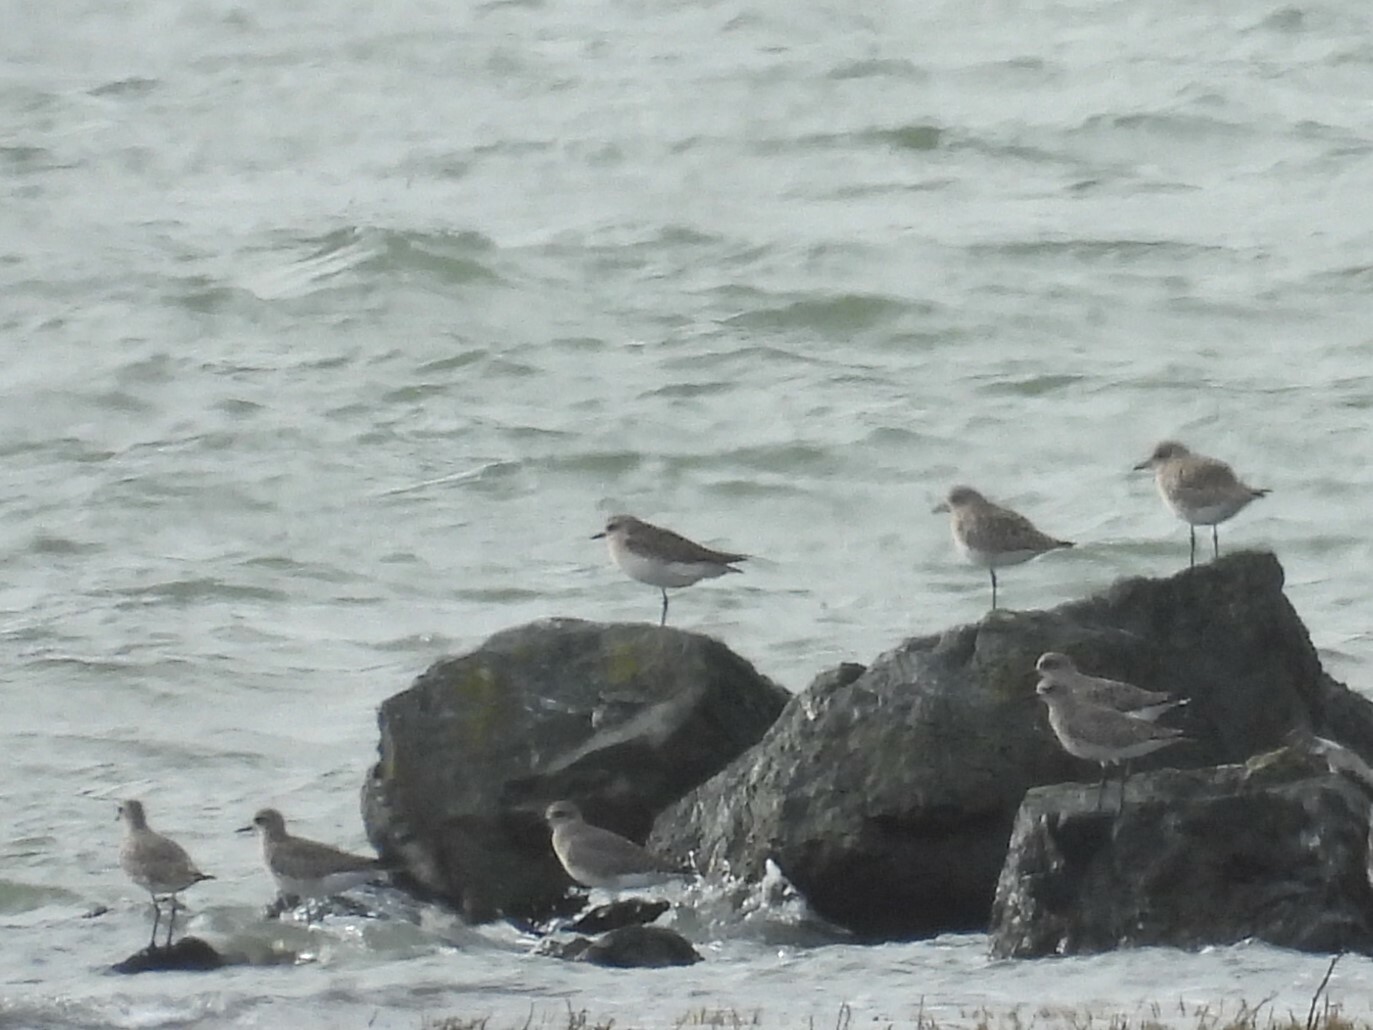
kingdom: Animalia
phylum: Chordata
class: Aves
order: Charadriiformes
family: Charadriidae
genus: Pluvialis
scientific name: Pluvialis squatarola
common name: Grey plover
